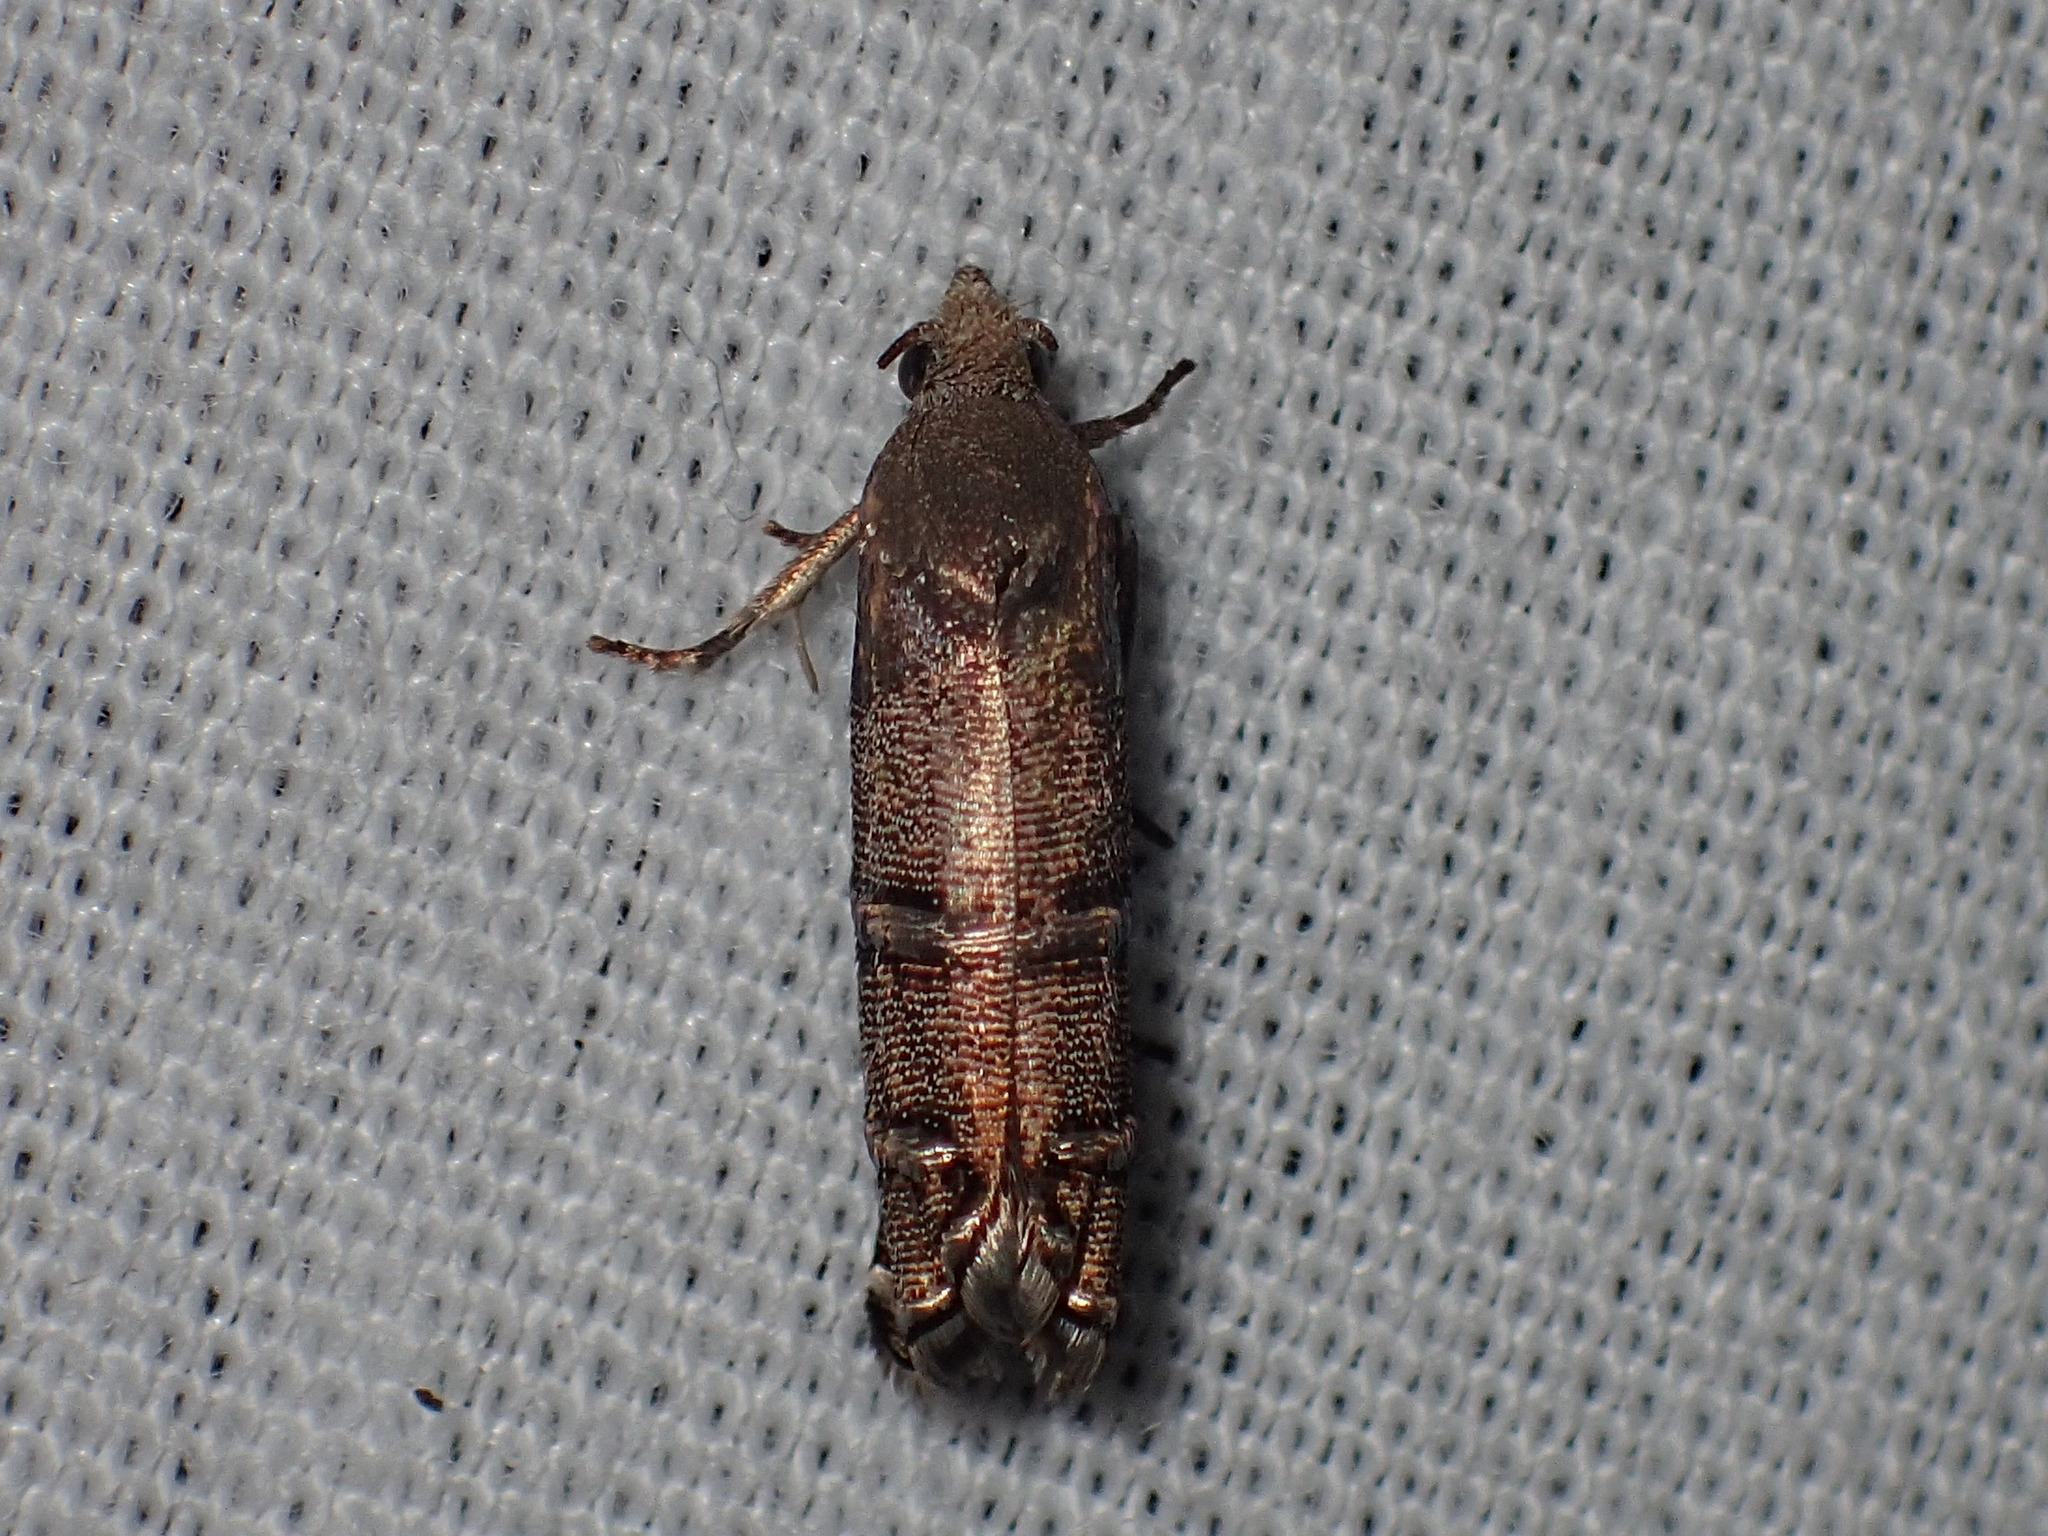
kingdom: Animalia
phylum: Arthropoda
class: Insecta
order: Lepidoptera
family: Tortricidae
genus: Cydia
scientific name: Cydia toreuta
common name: Eastern pine seedworm moth
